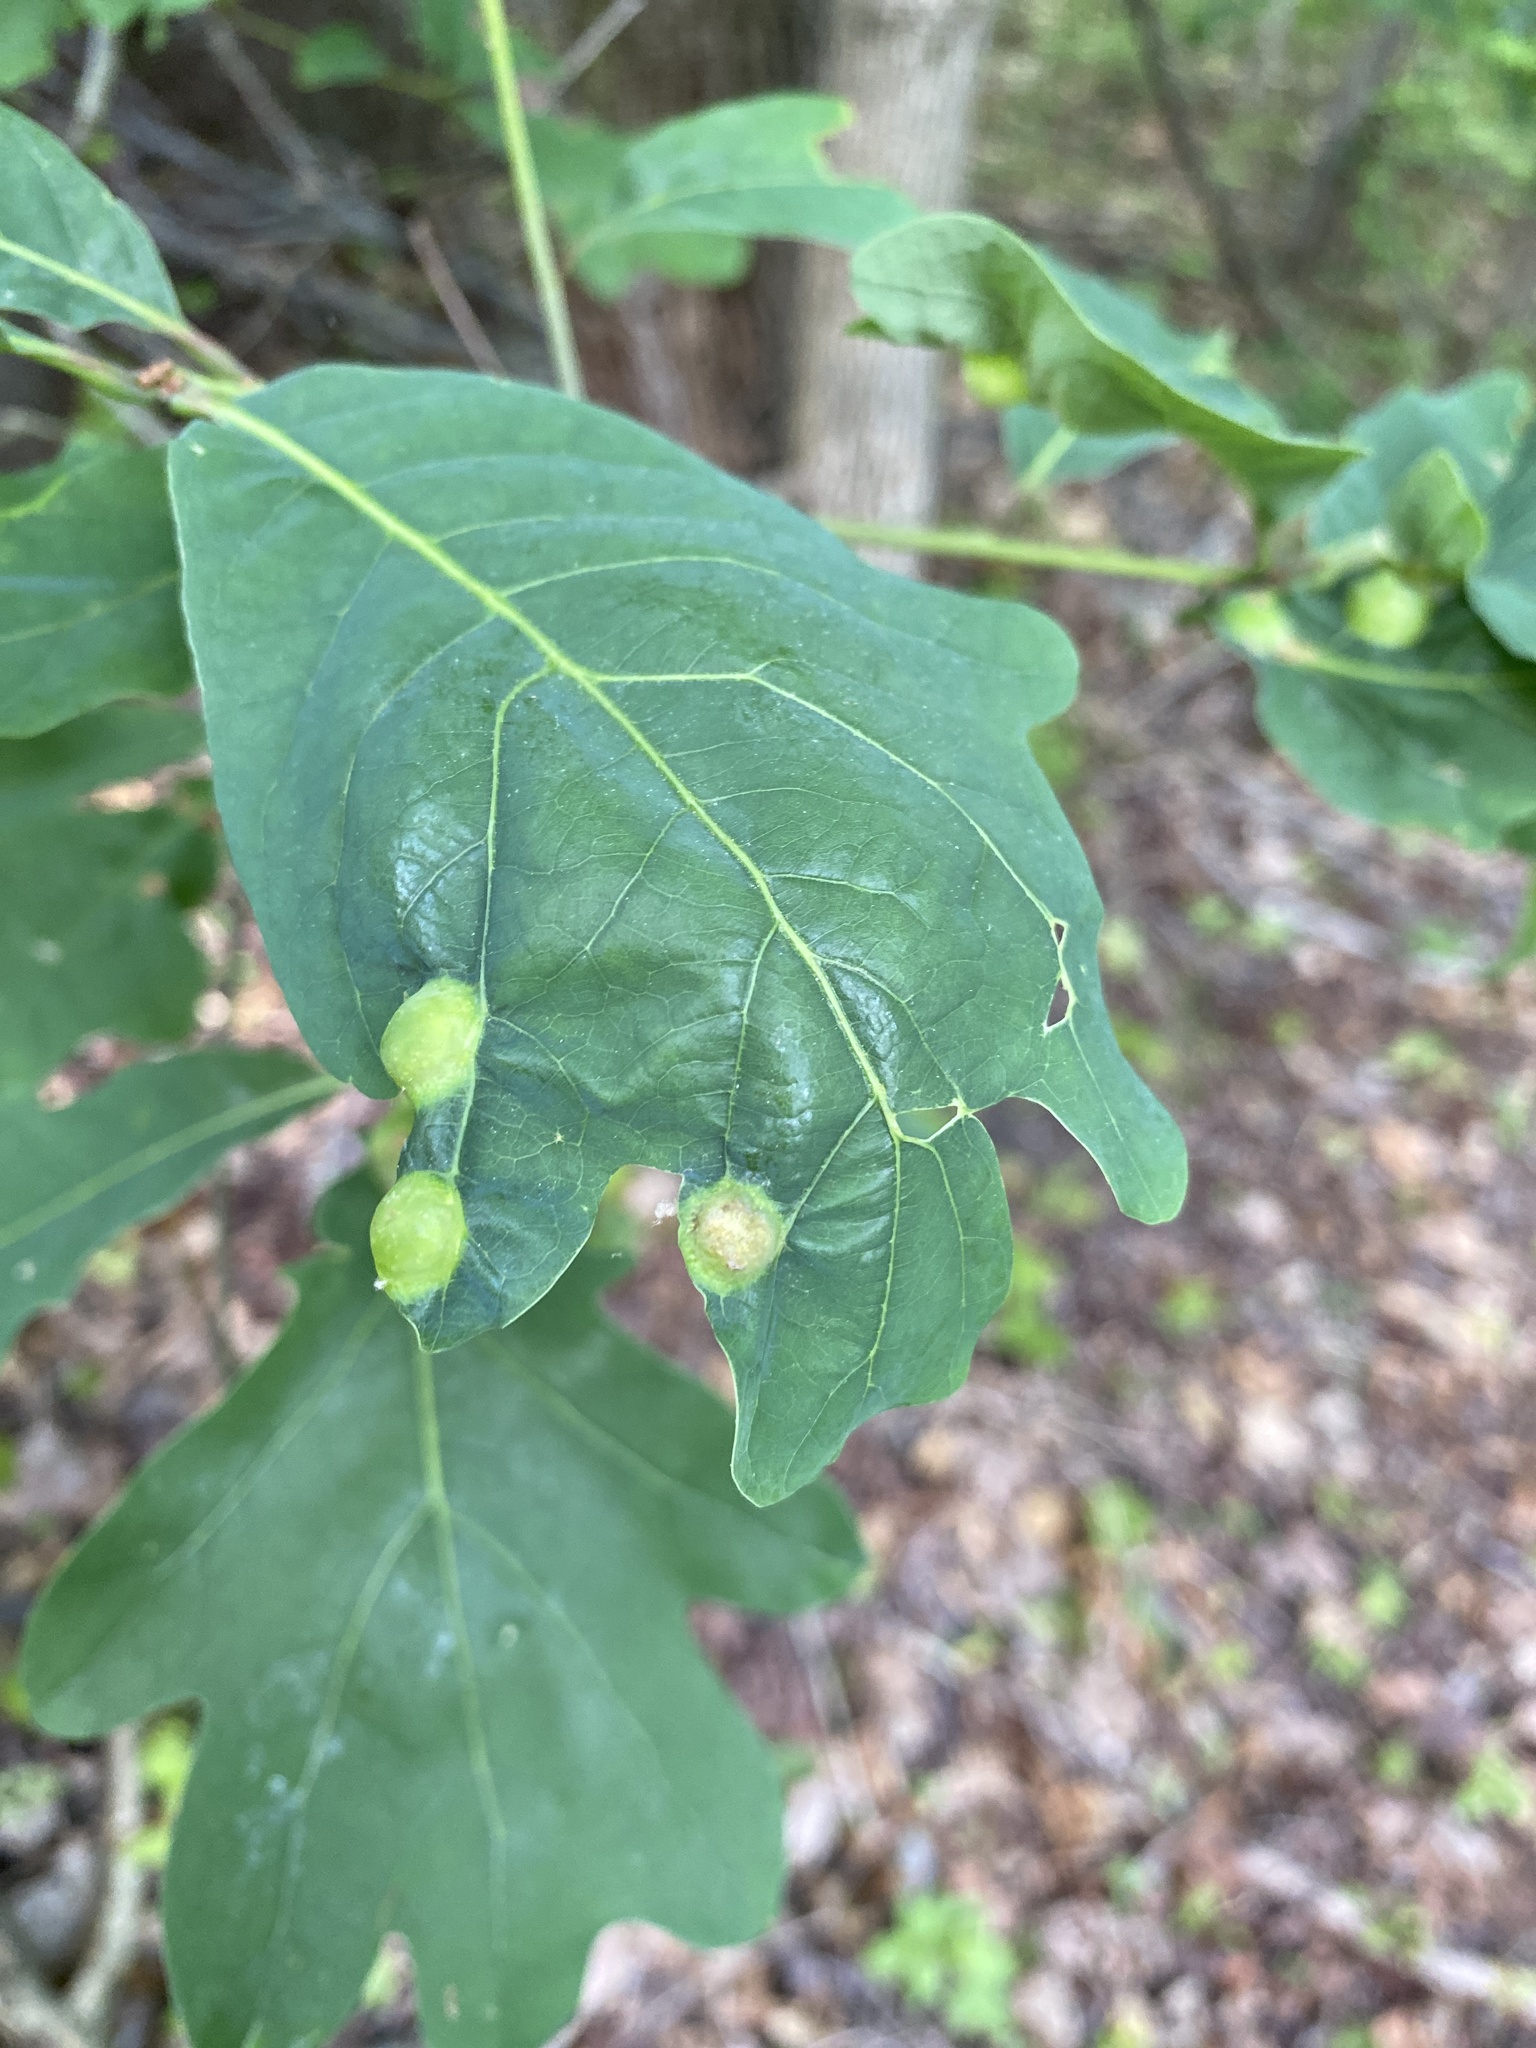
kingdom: Animalia
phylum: Arthropoda
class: Insecta
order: Hymenoptera
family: Cynipidae
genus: Callirhytis
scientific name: Callirhytis
